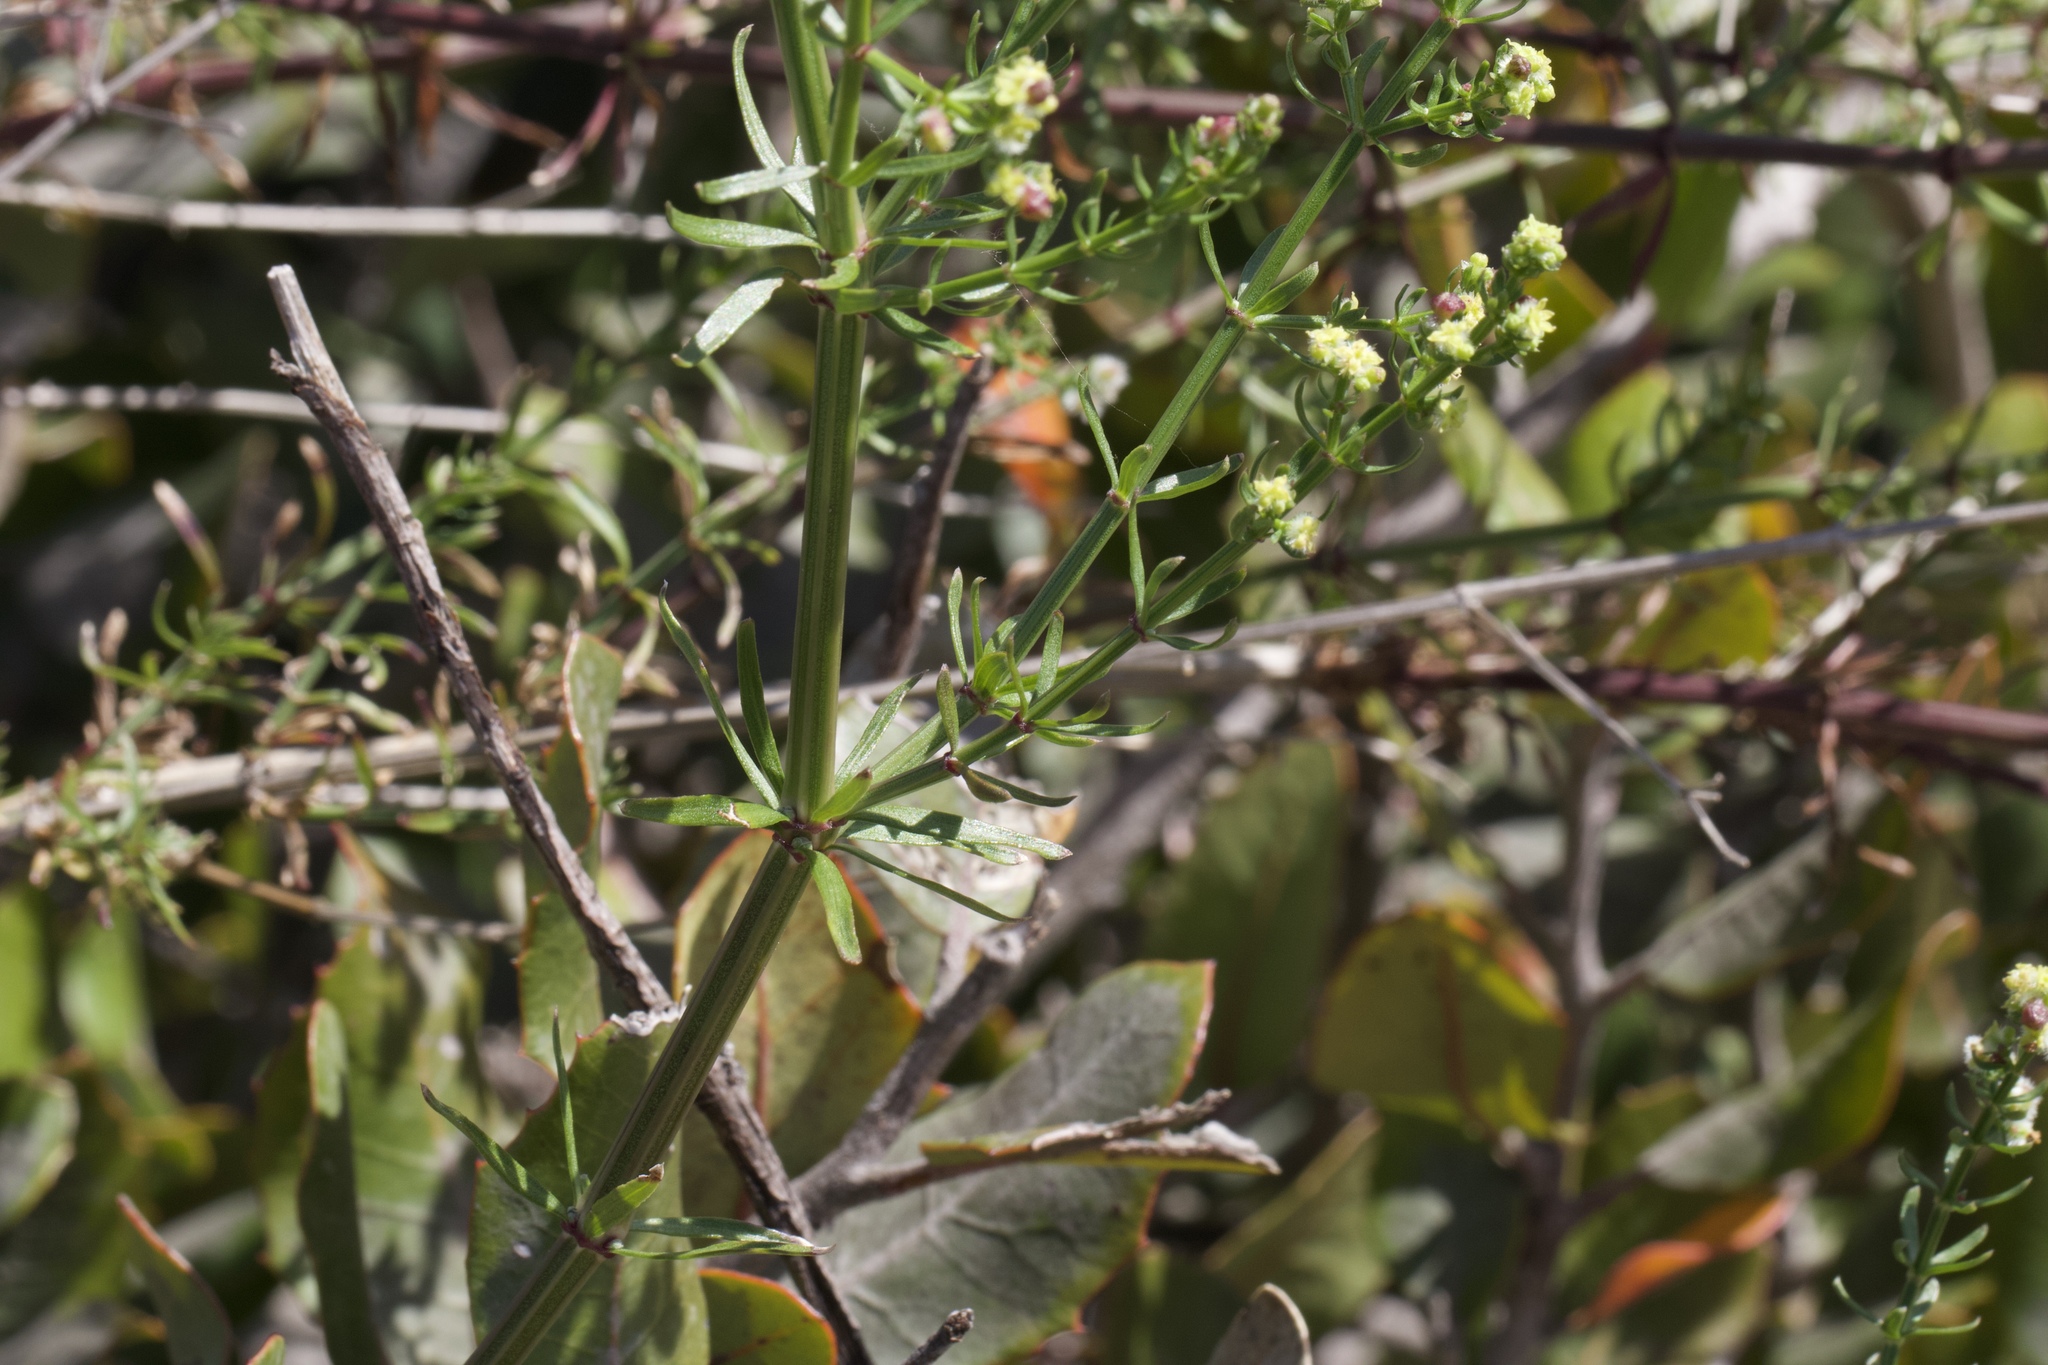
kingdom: Plantae
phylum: Tracheophyta
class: Magnoliopsida
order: Gentianales
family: Rubiaceae
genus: Galium
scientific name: Galium angustifolium
